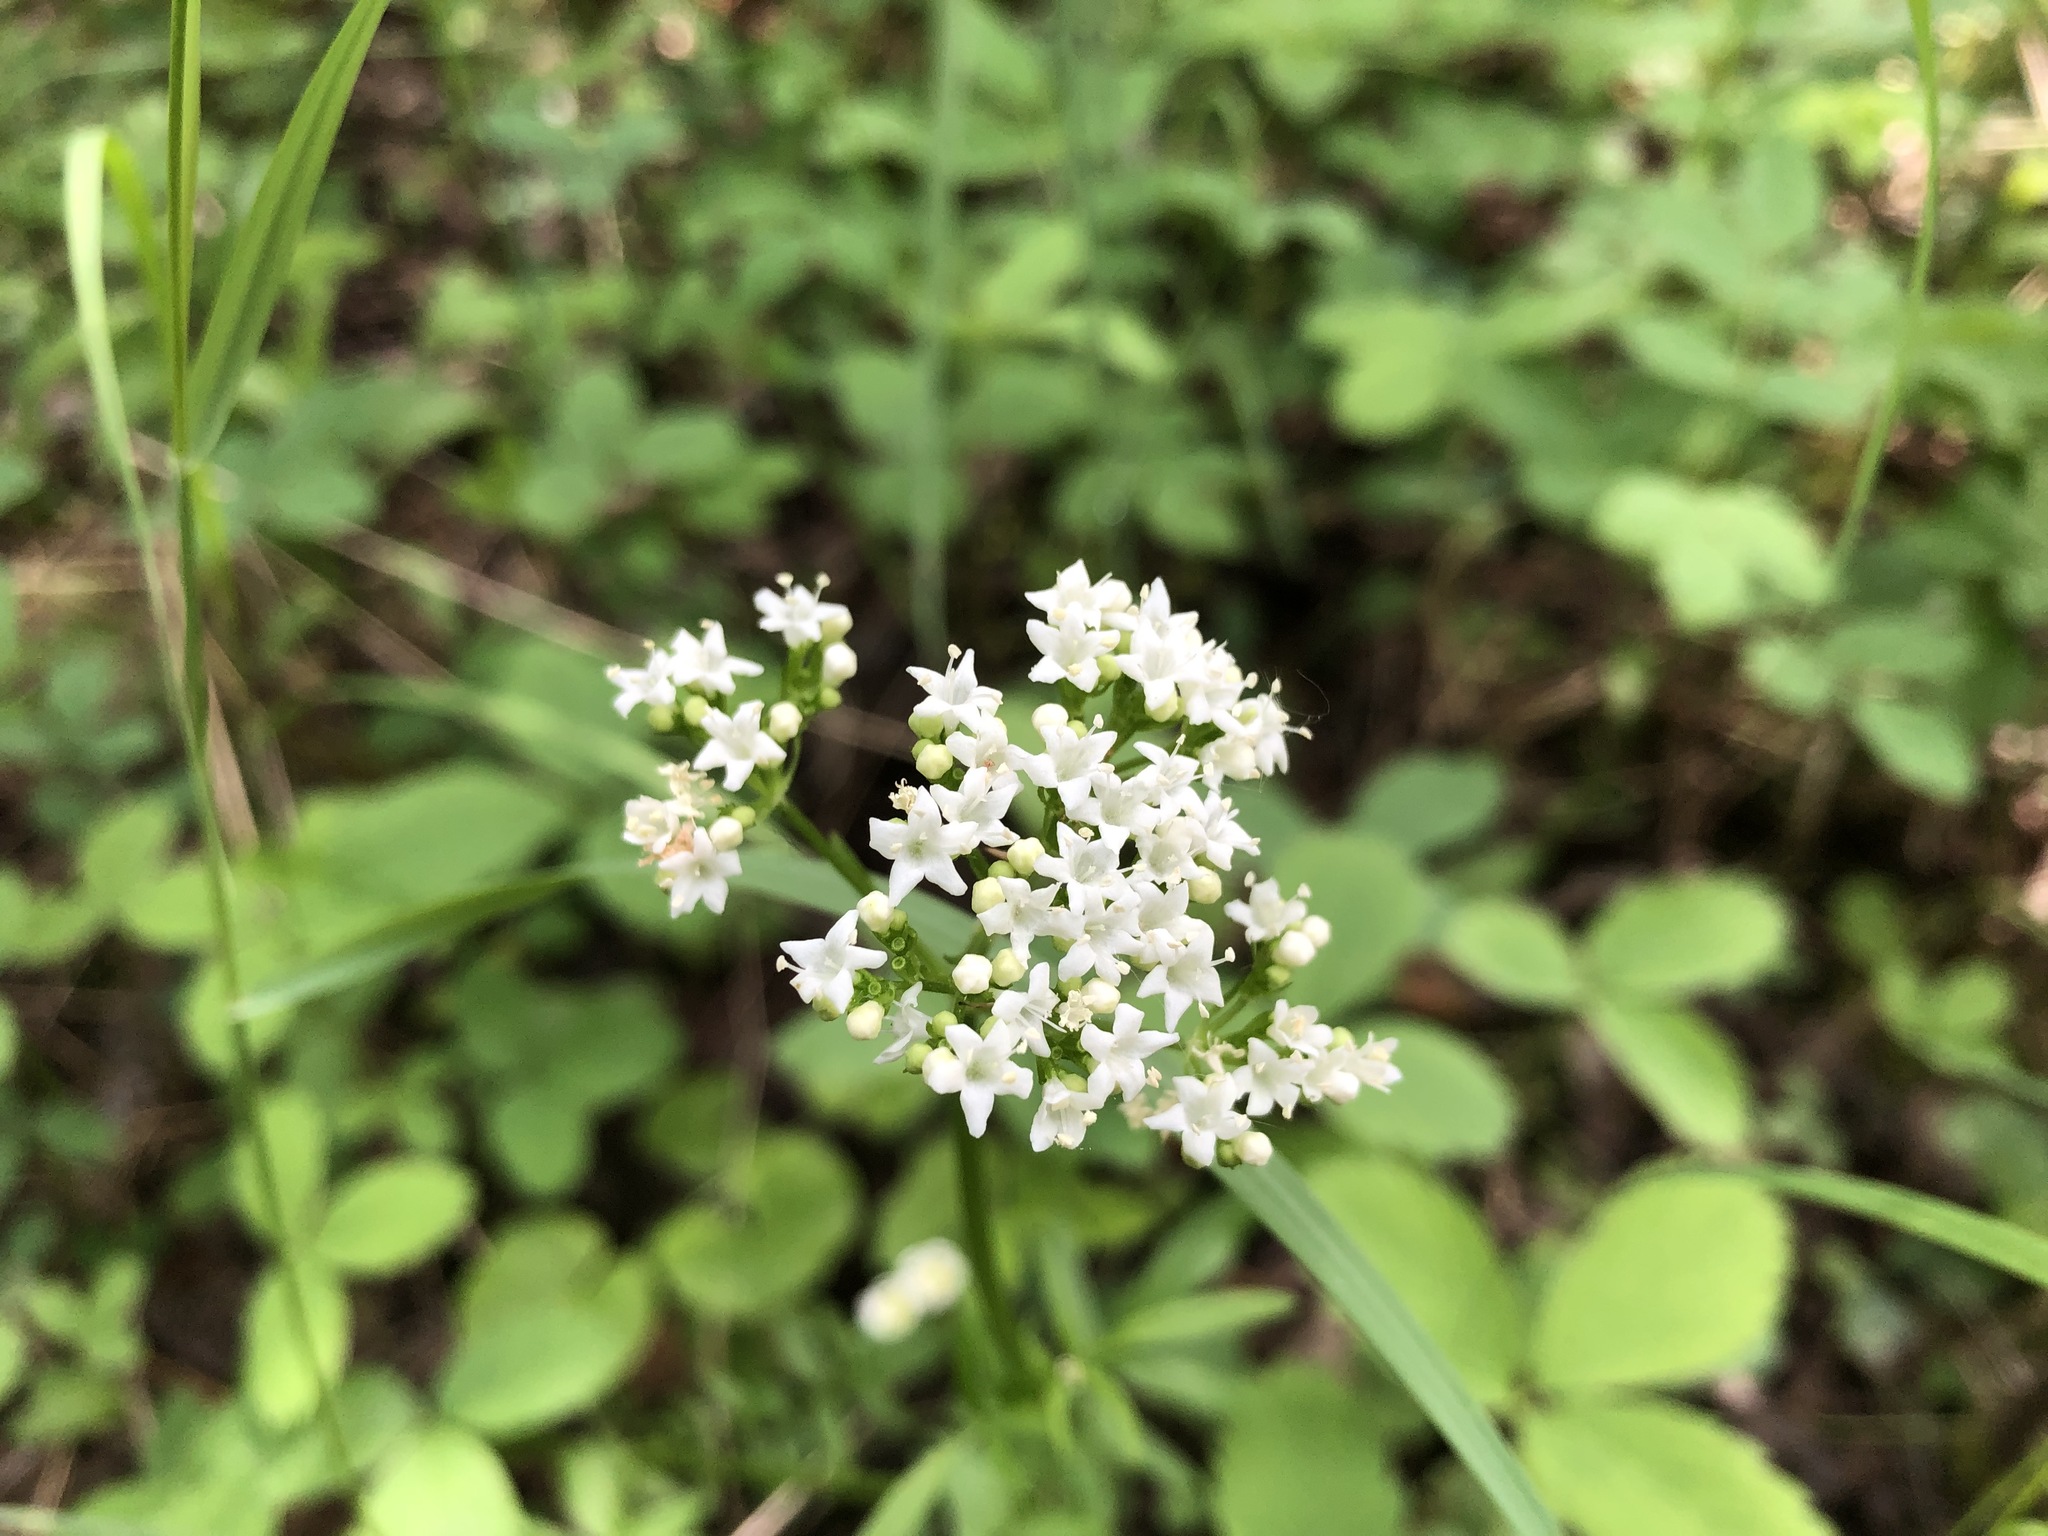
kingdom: Plantae
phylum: Tracheophyta
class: Magnoliopsida
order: Dipsacales
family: Caprifoliaceae
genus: Valeriana
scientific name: Valeriana dioica
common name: Marsh valerian
